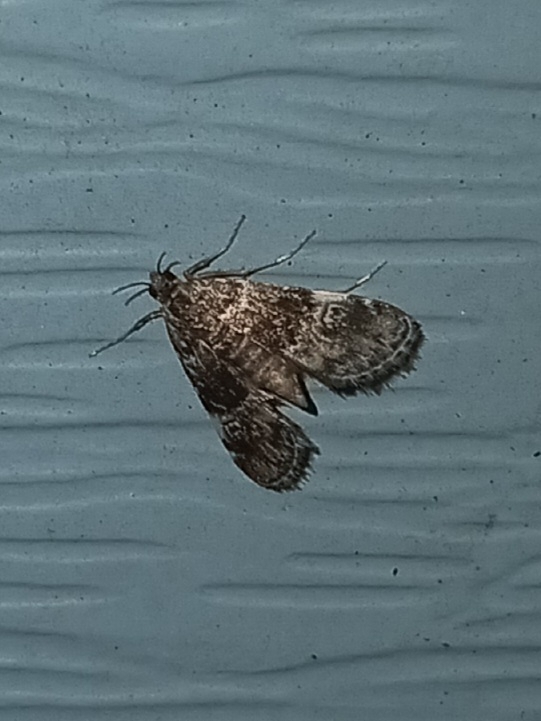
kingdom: Animalia
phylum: Arthropoda
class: Insecta
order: Lepidoptera
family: Crambidae
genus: Elophila
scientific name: Elophila obliteralis
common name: Waterlily leafcutter moth
